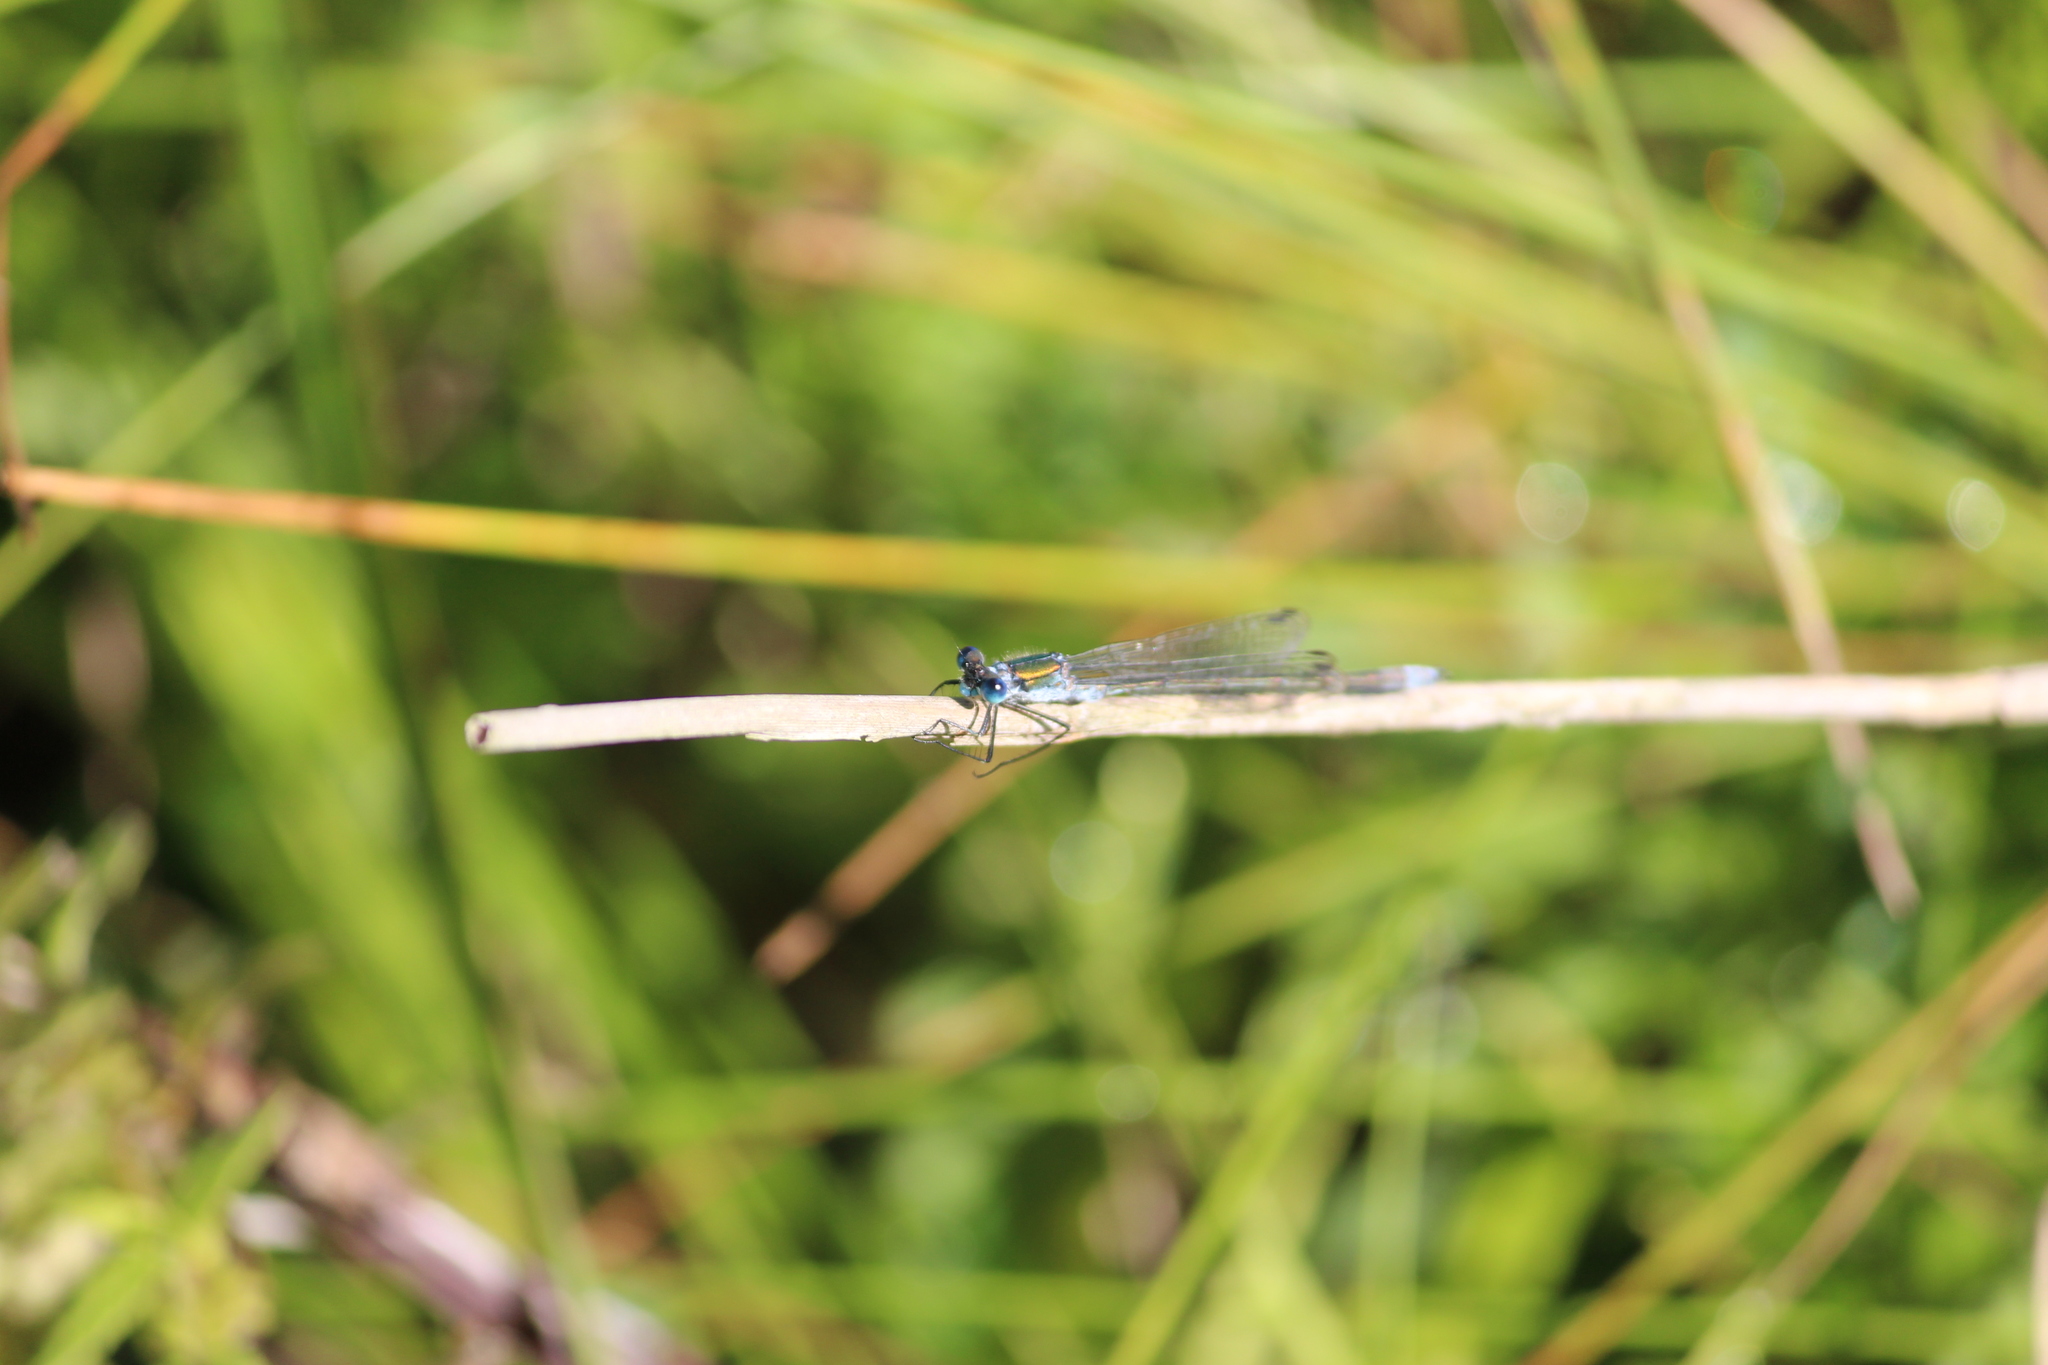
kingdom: Animalia
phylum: Arthropoda
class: Insecta
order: Odonata
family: Lestidae
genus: Lestes
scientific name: Lestes sponsa
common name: Common spreadwing
